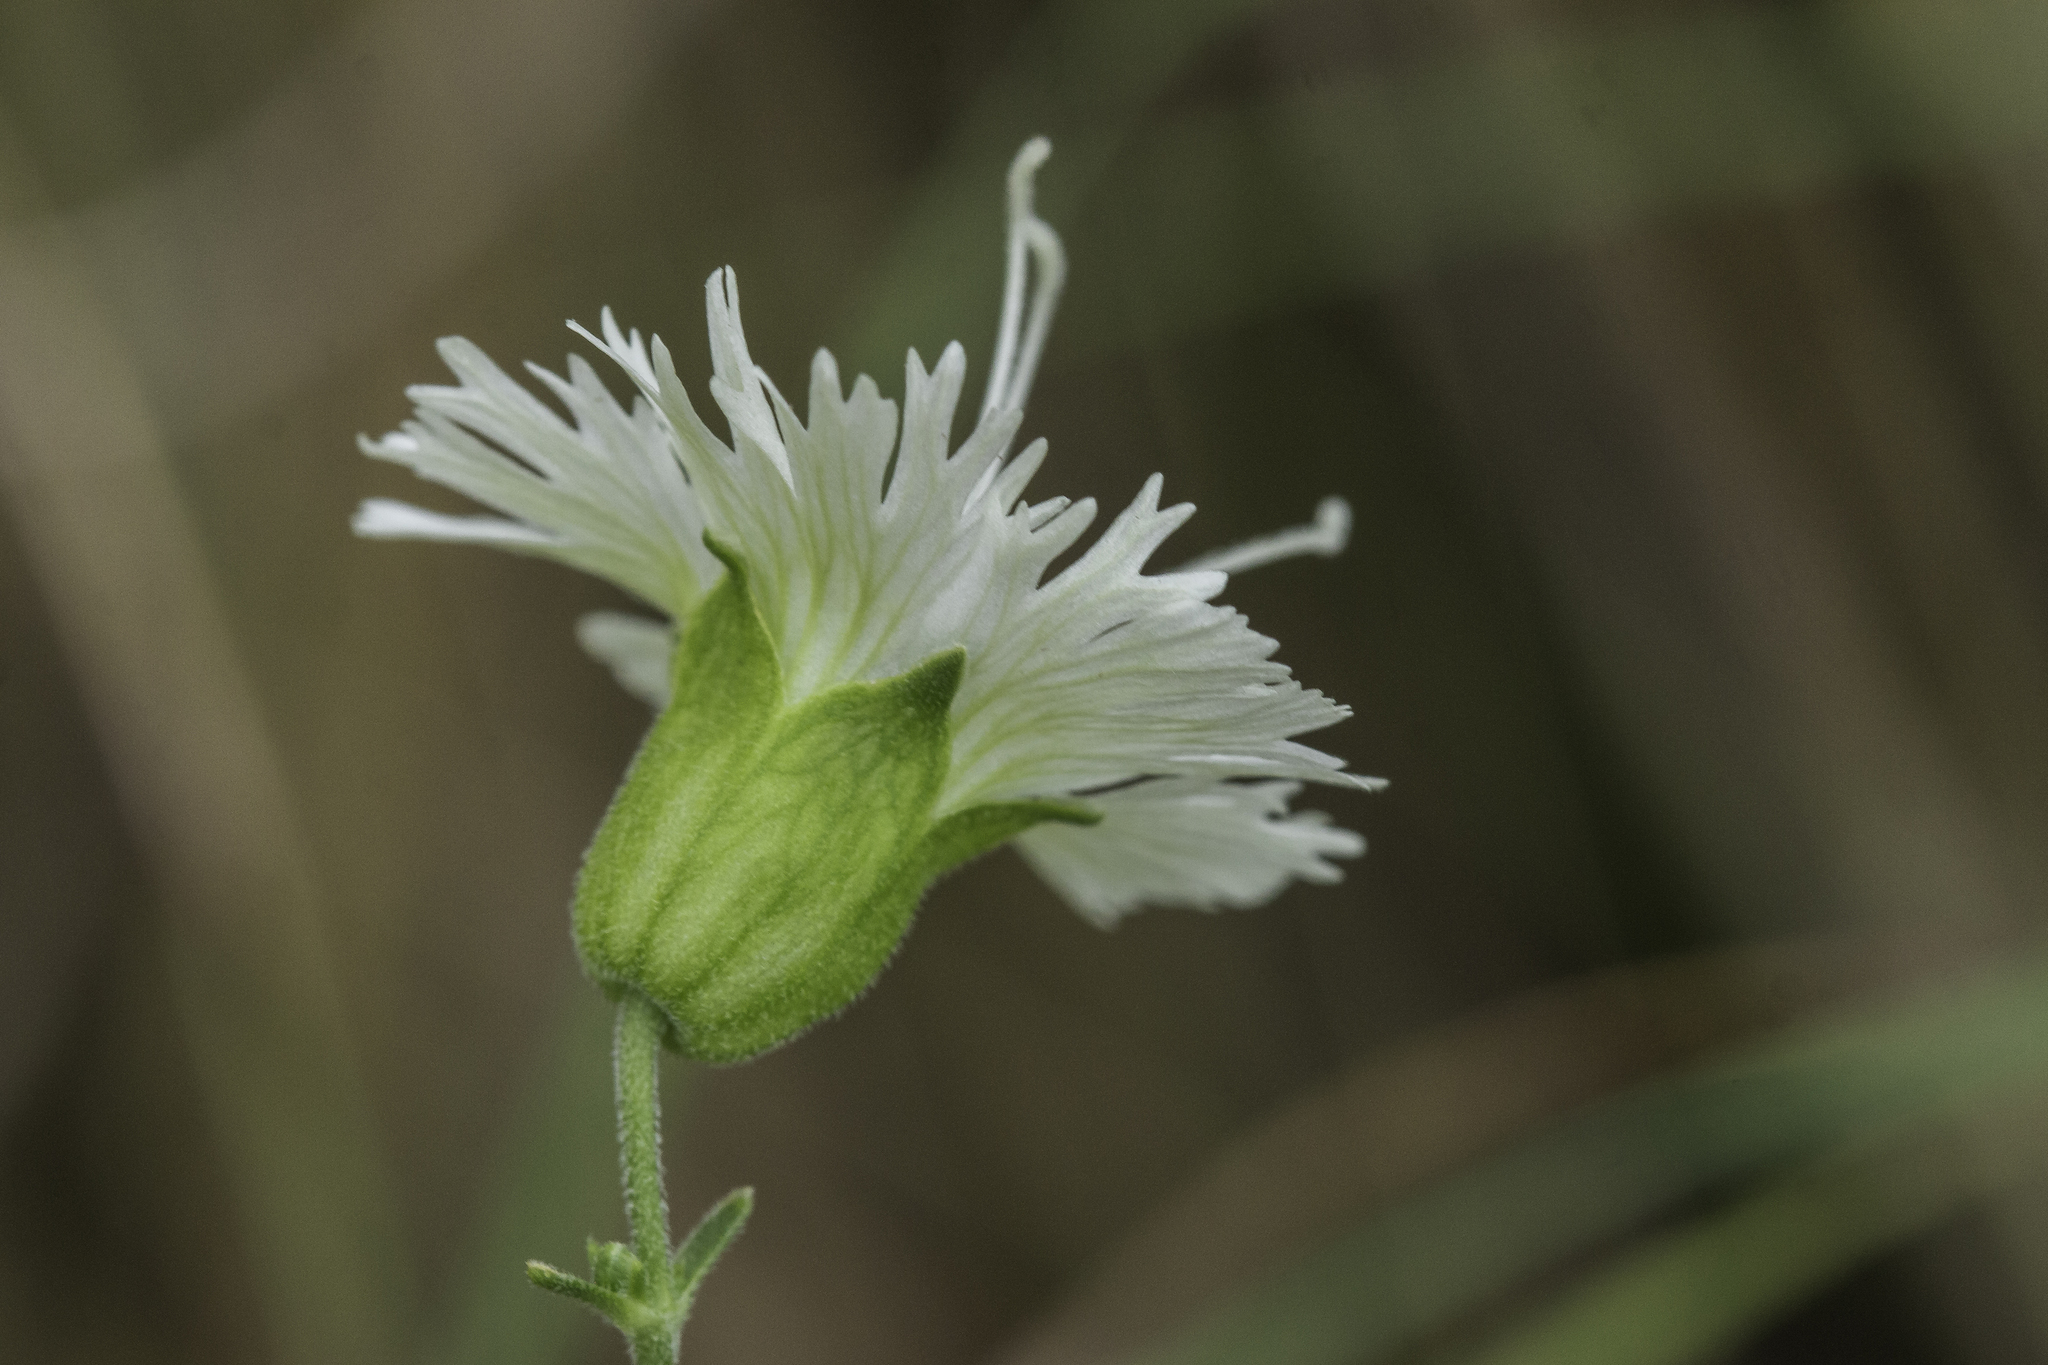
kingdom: Plantae
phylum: Tracheophyta
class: Magnoliopsida
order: Caryophyllales
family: Caryophyllaceae
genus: Silene
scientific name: Silene stellata
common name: Starry campion
